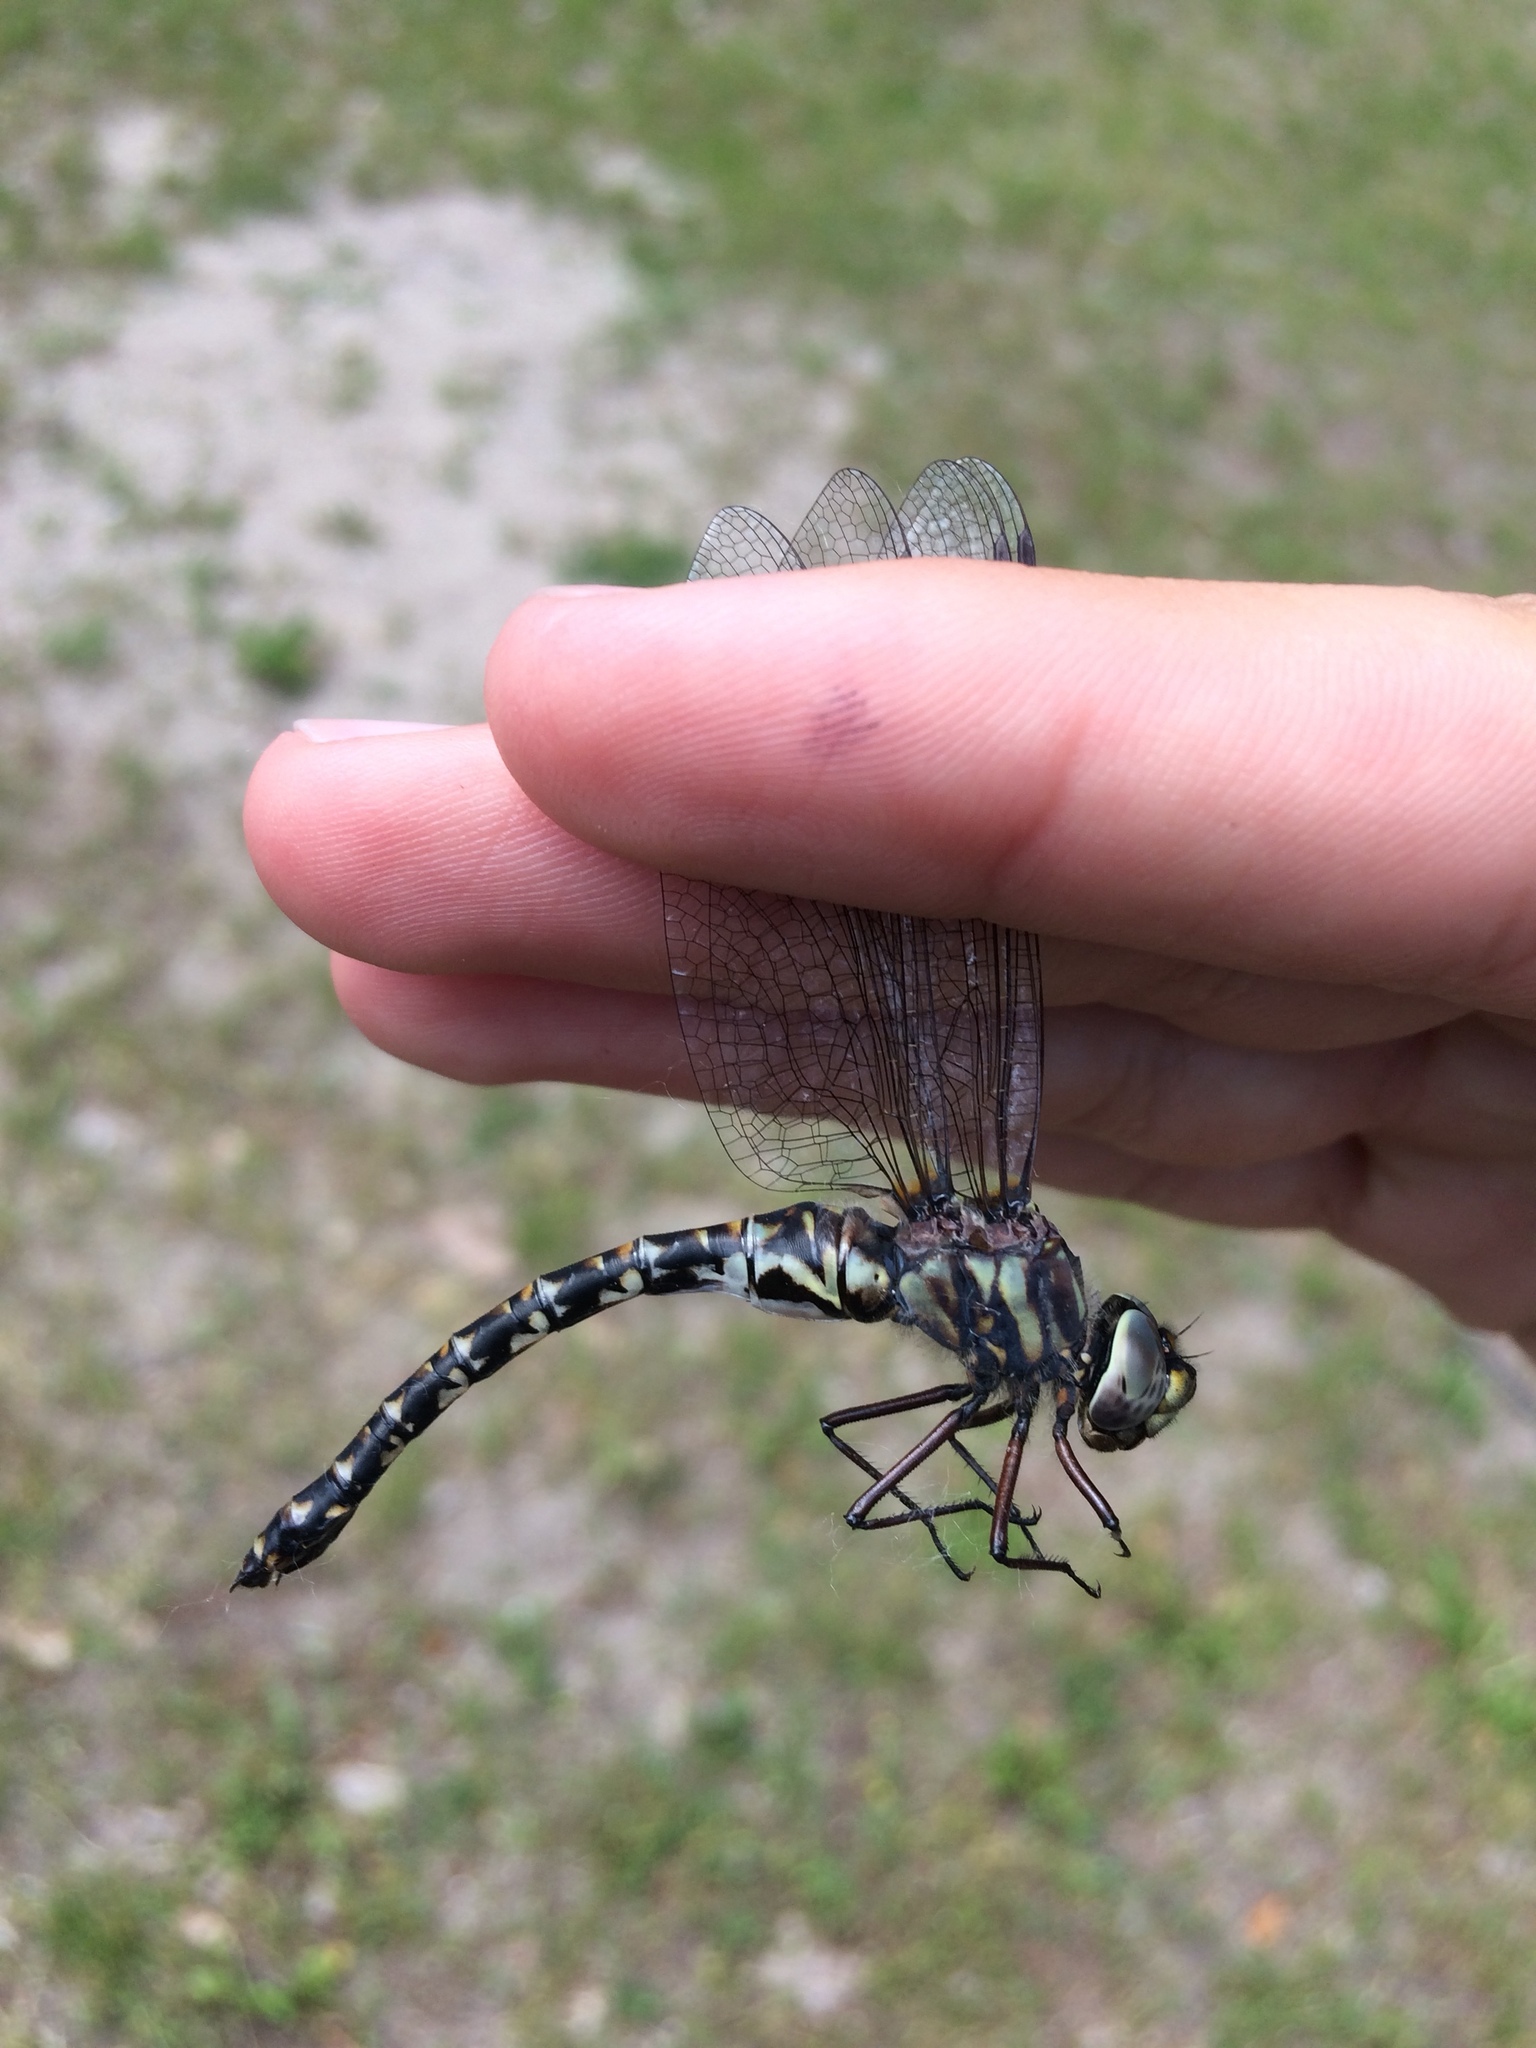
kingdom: Animalia
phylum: Arthropoda
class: Insecta
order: Odonata
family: Aeshnidae
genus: Gomphaeschna
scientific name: Gomphaeschna furcillata
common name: Harlequin darner
